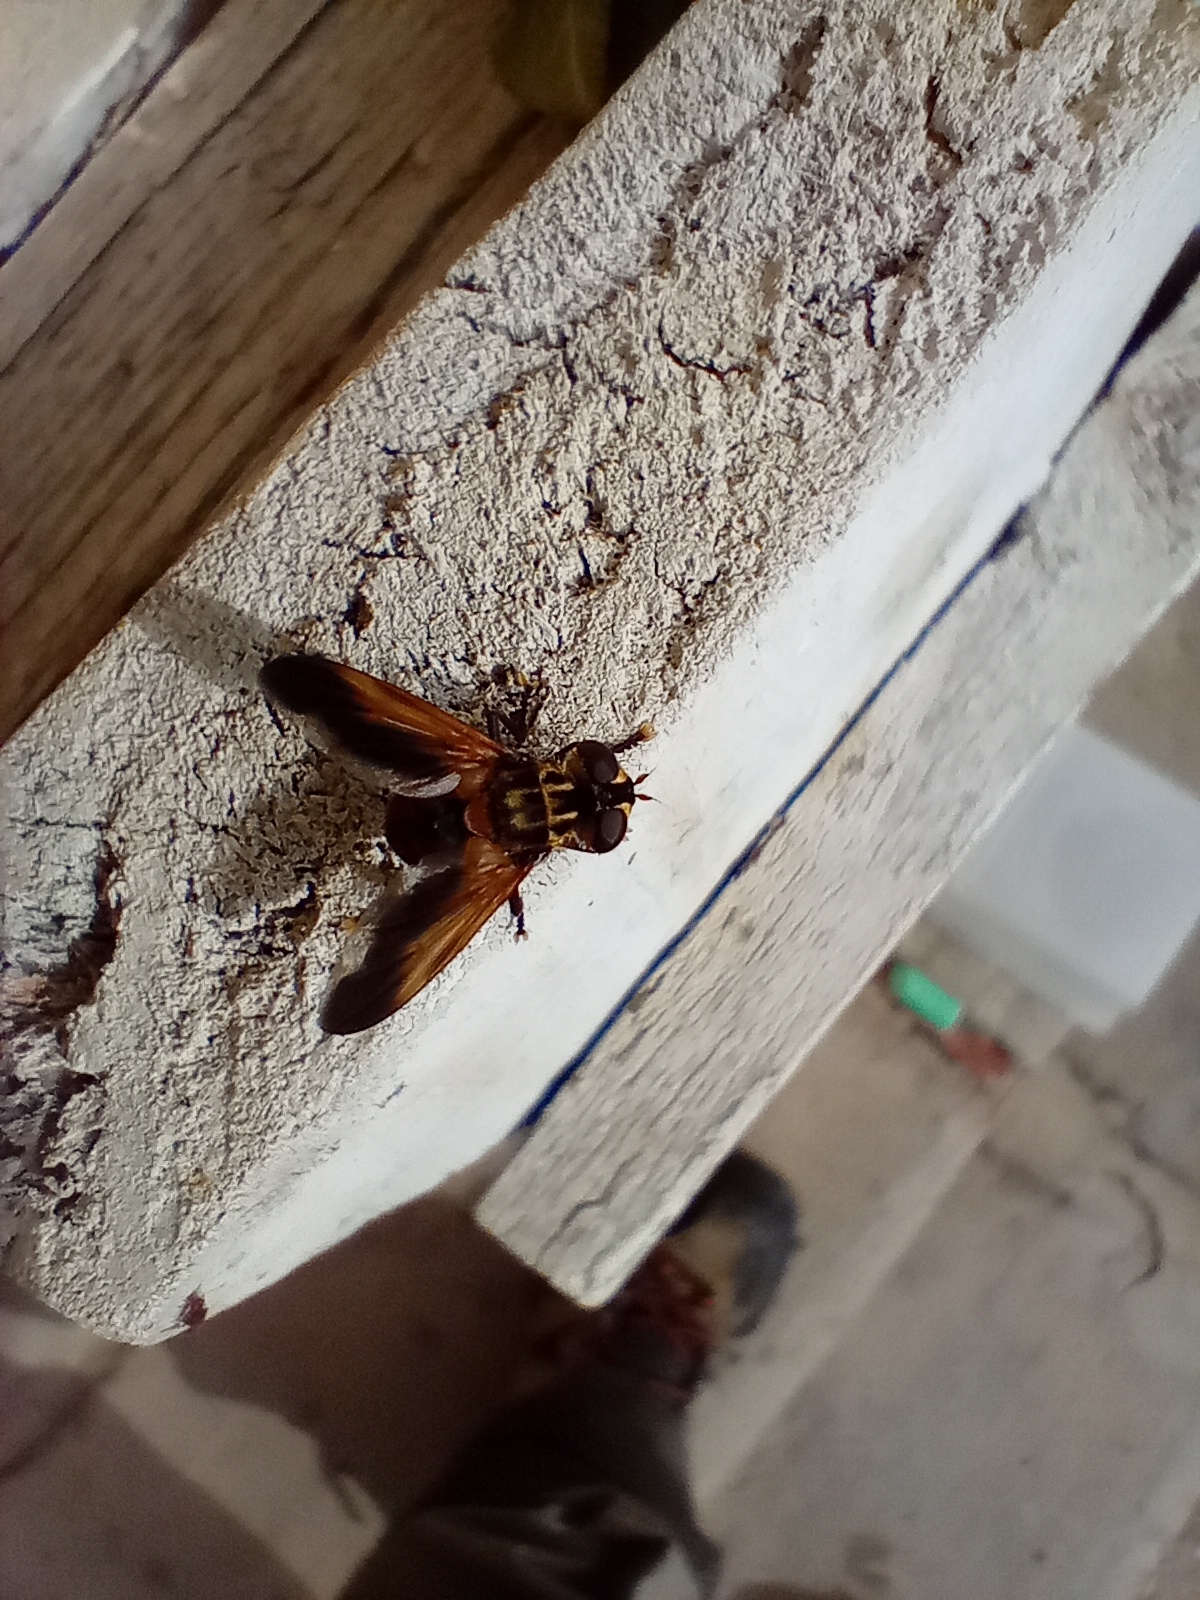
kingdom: Animalia
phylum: Arthropoda
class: Insecta
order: Diptera
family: Tachinidae
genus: Trichopoda
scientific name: Trichopoda pictipennis
